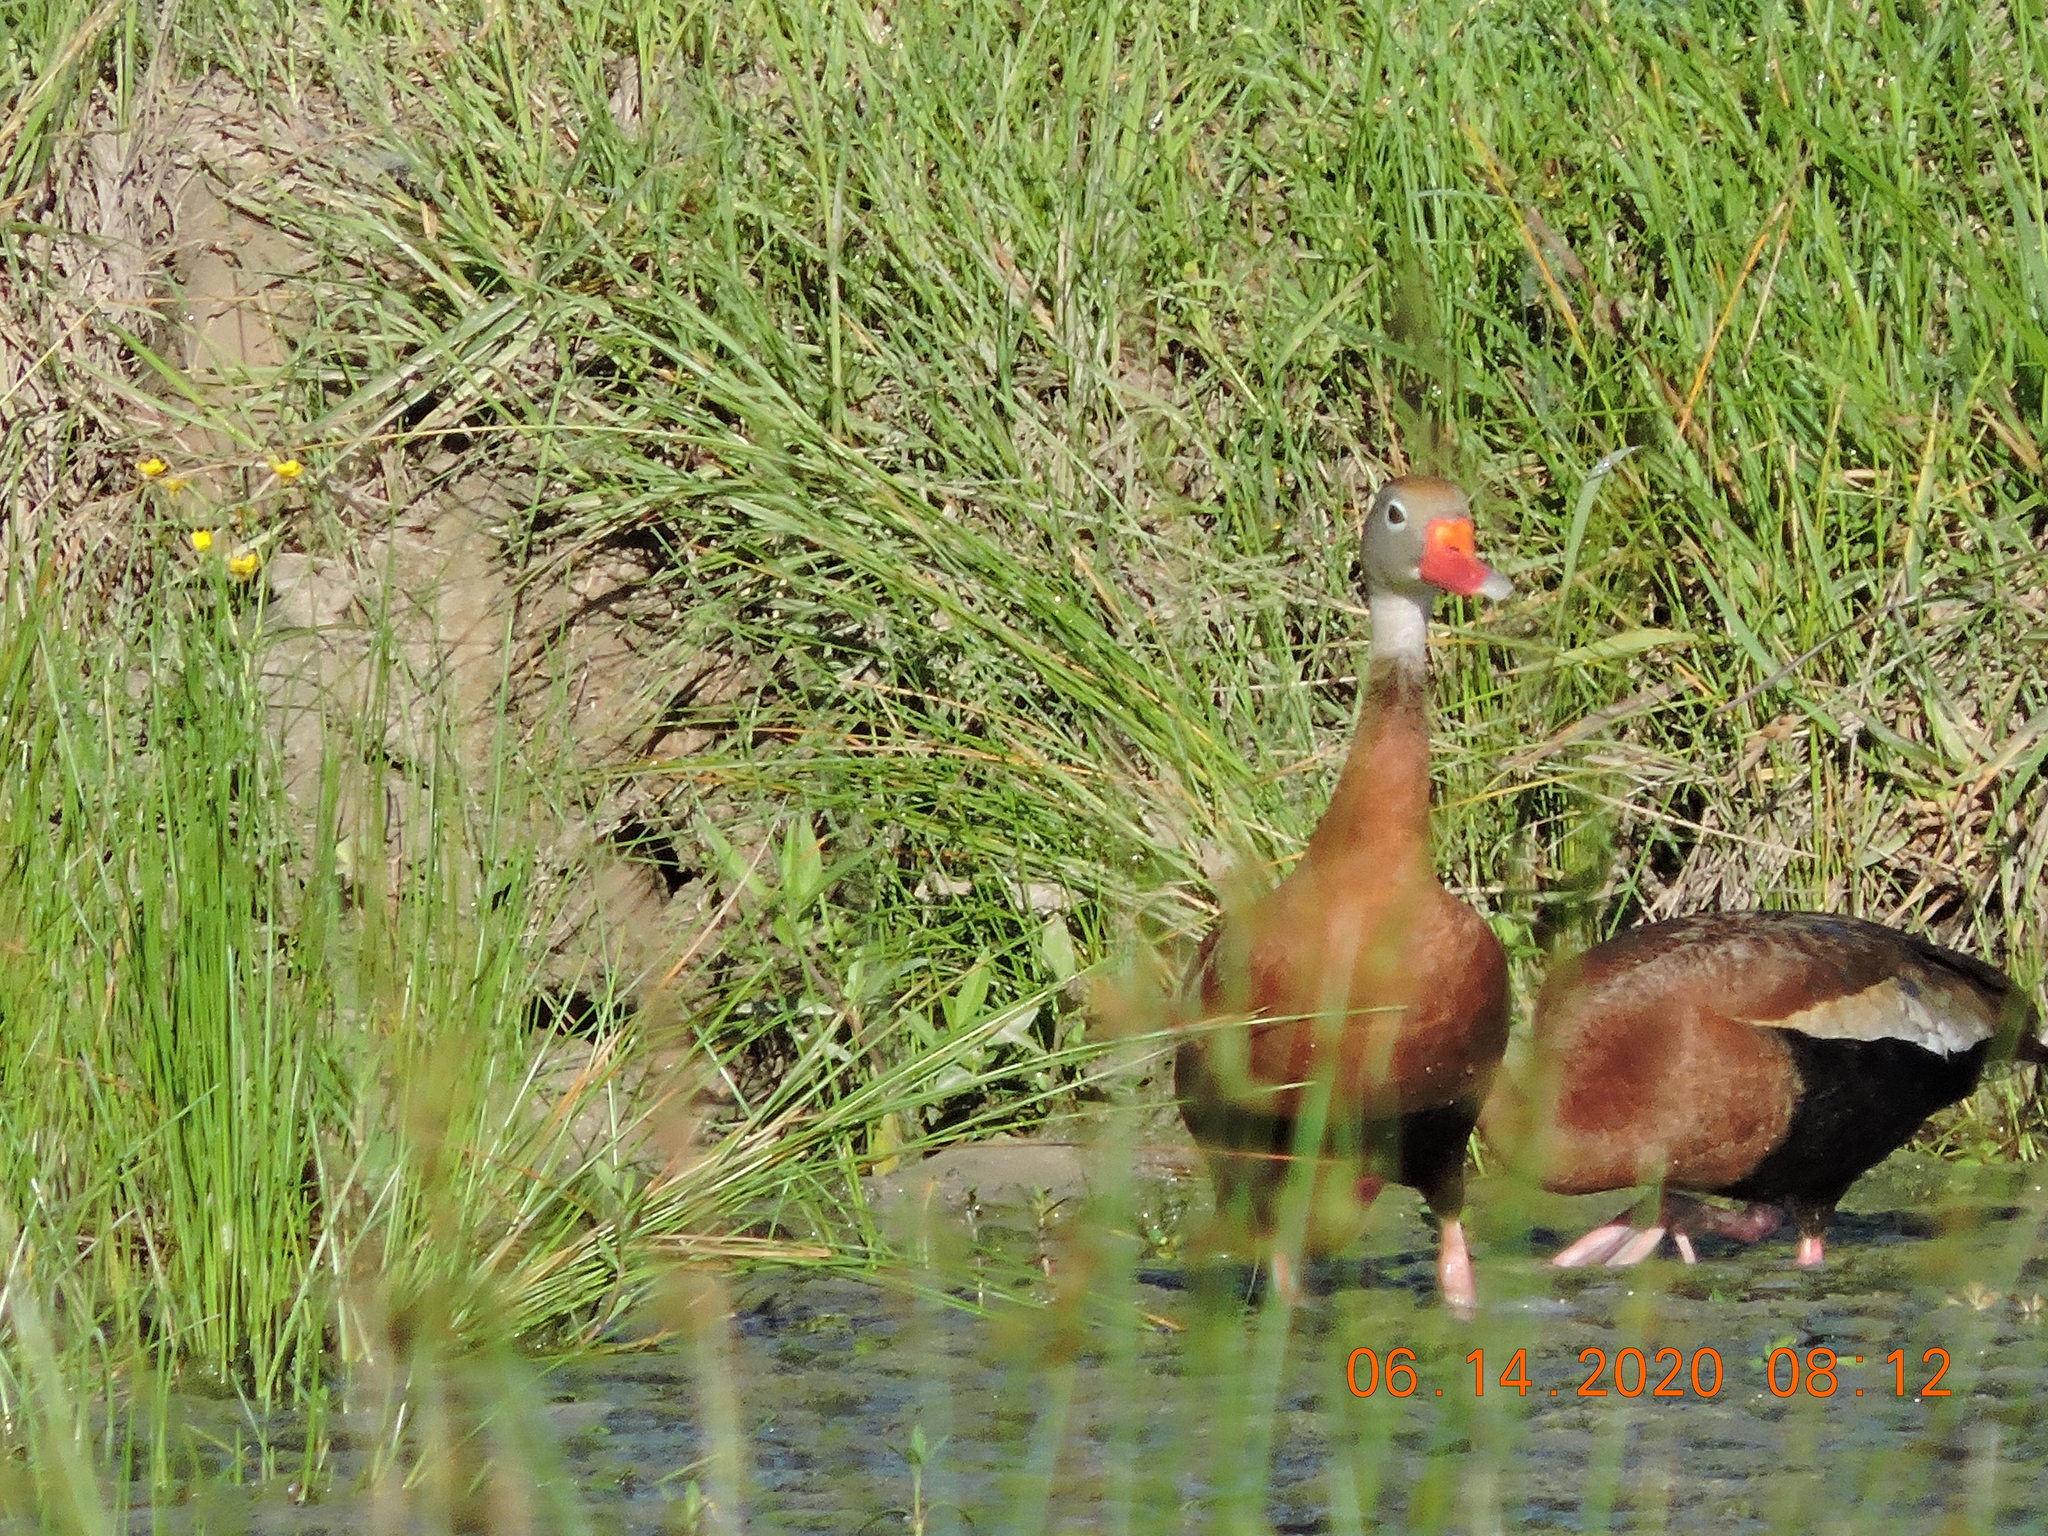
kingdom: Animalia
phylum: Chordata
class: Aves
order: Anseriformes
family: Anatidae
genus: Dendrocygna
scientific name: Dendrocygna autumnalis
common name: Black-bellied whistling duck
